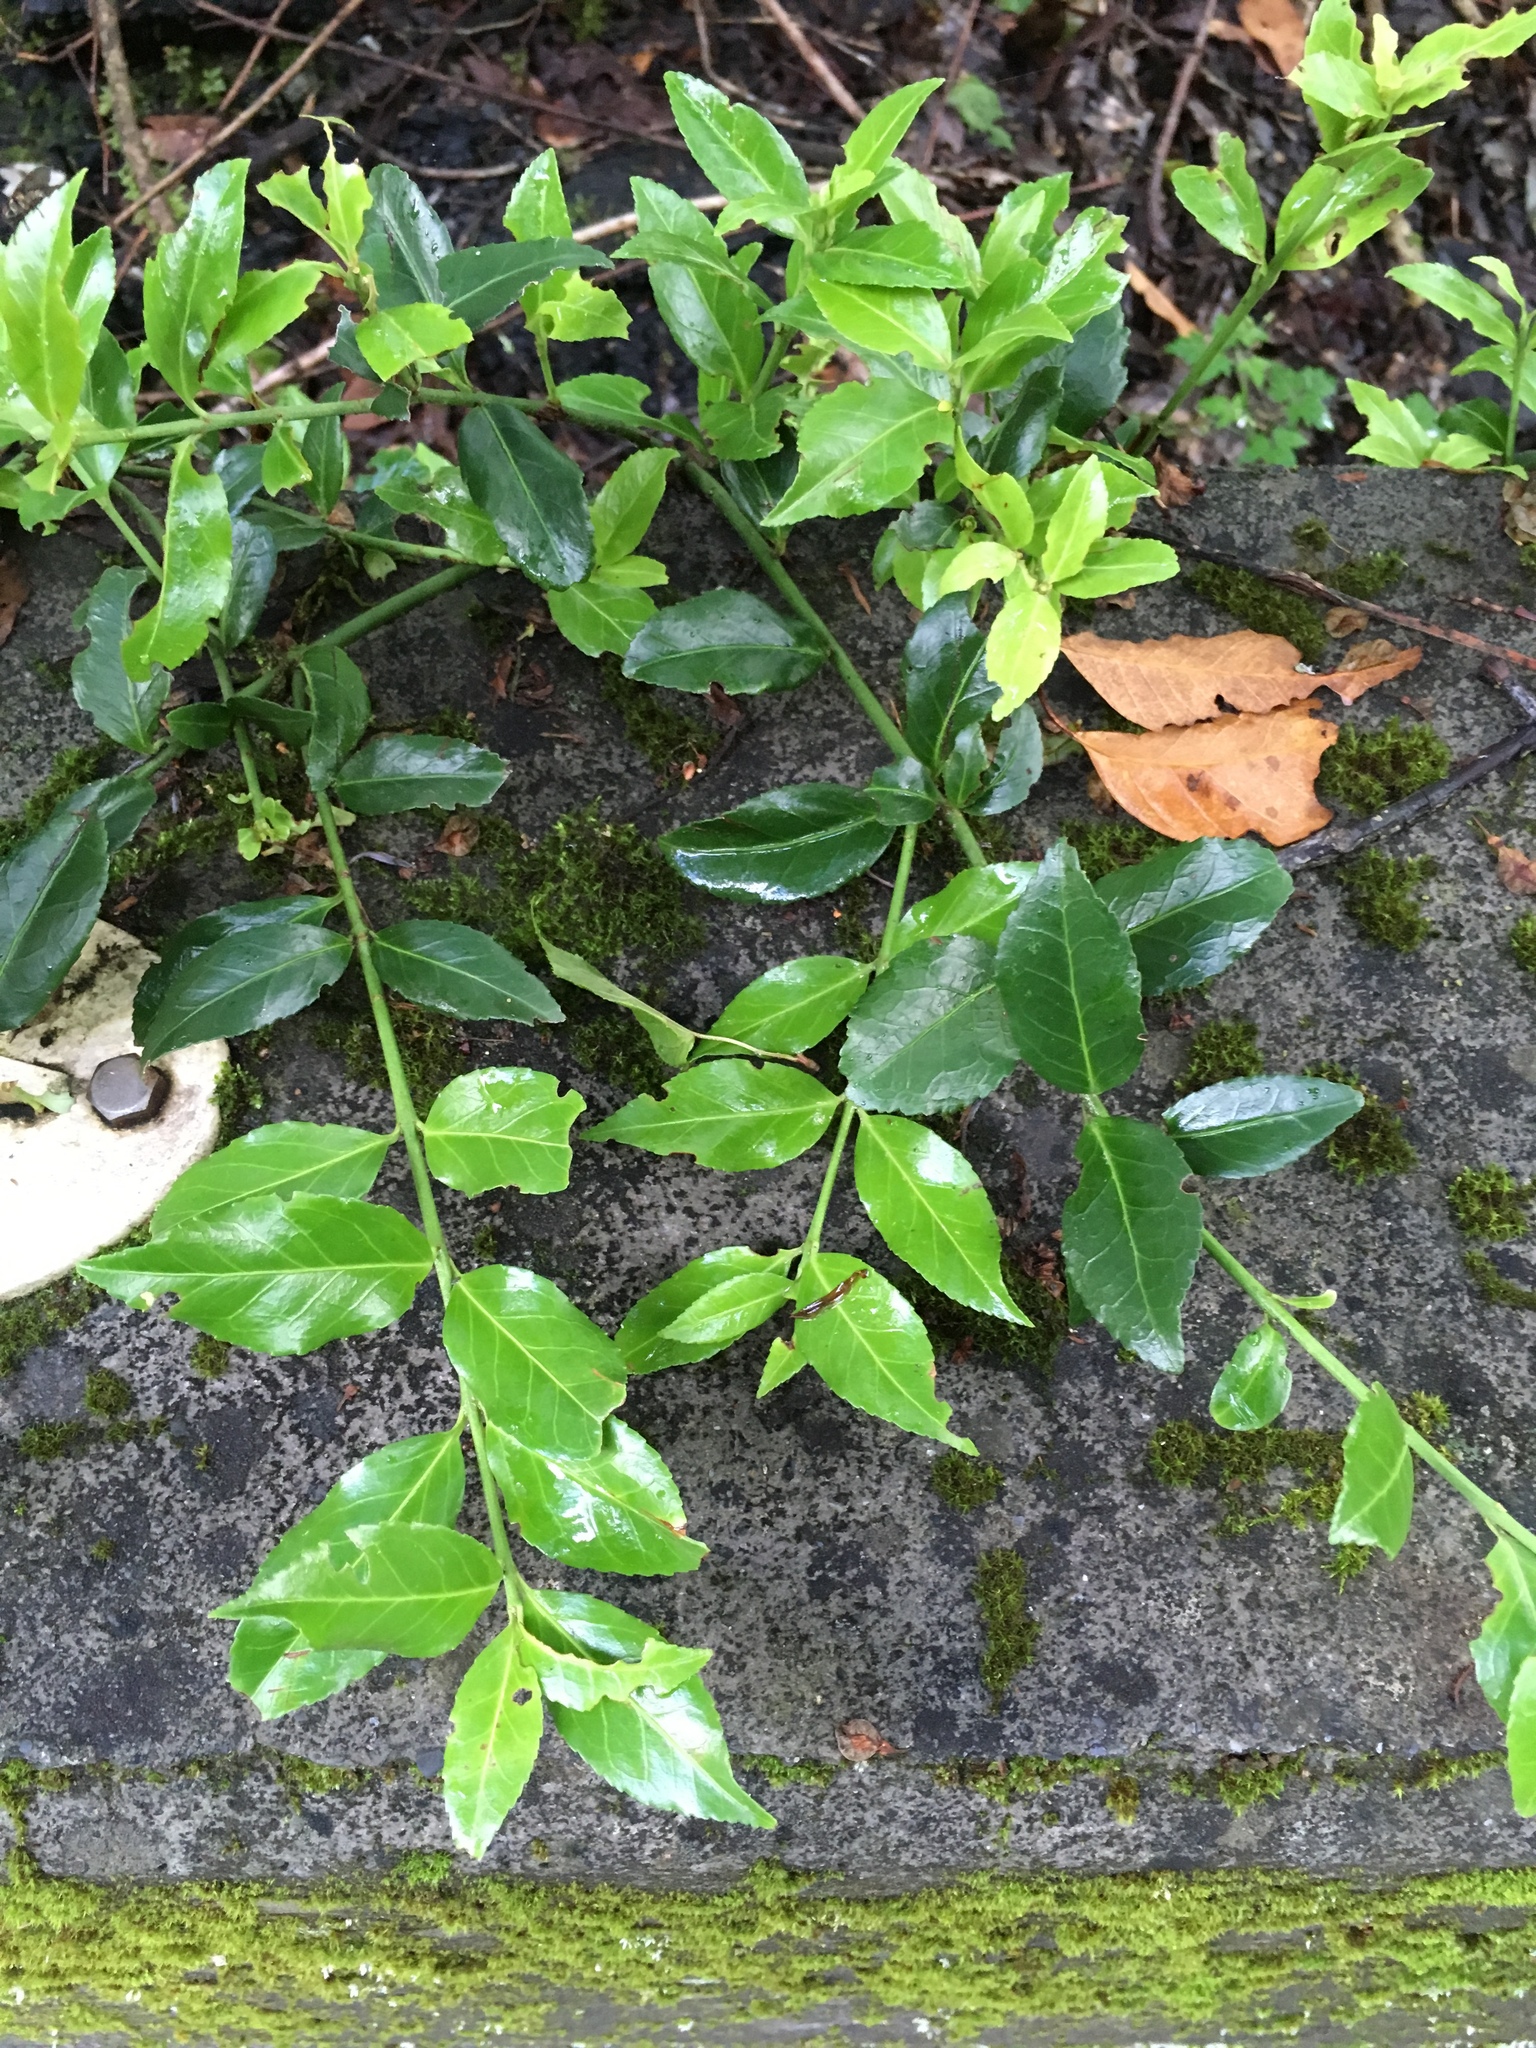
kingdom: Plantae
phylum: Tracheophyta
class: Magnoliopsida
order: Rosales
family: Rosaceae
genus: Prinsepia
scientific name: Prinsepia scandens
